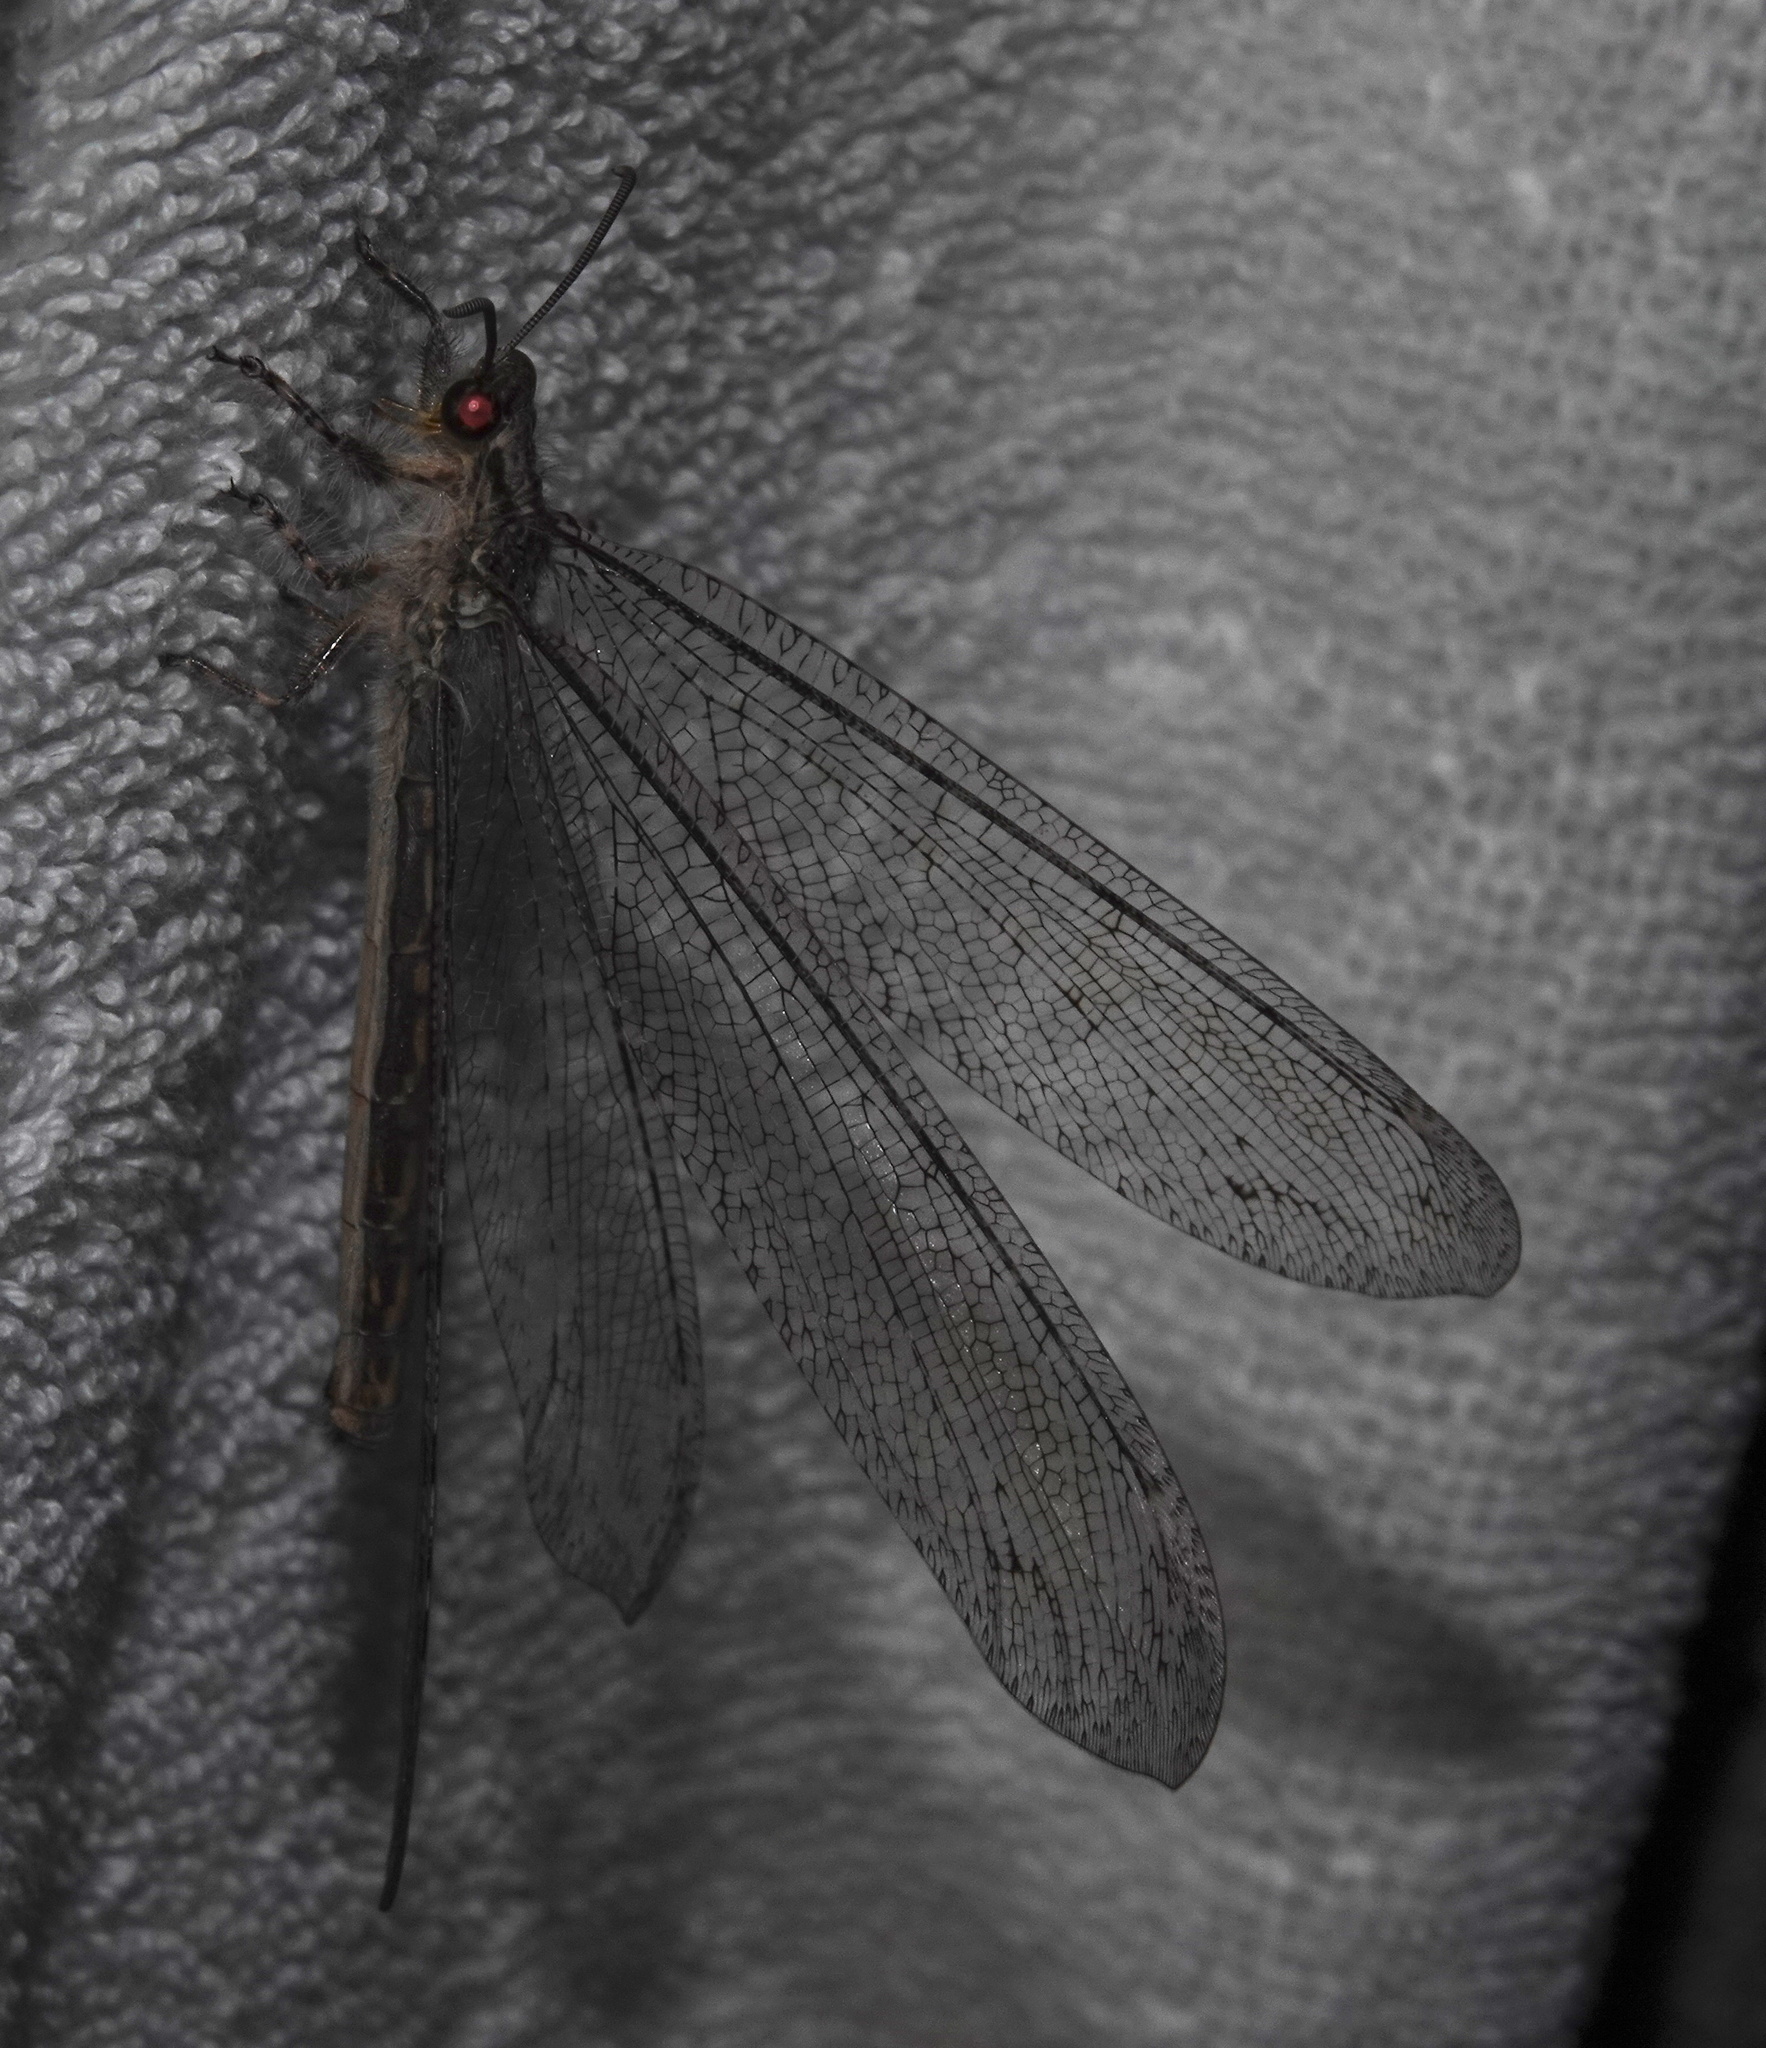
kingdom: Animalia
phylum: Arthropoda
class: Insecta
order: Neuroptera
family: Myrmeleontidae
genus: Vella
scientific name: Vella fallax
